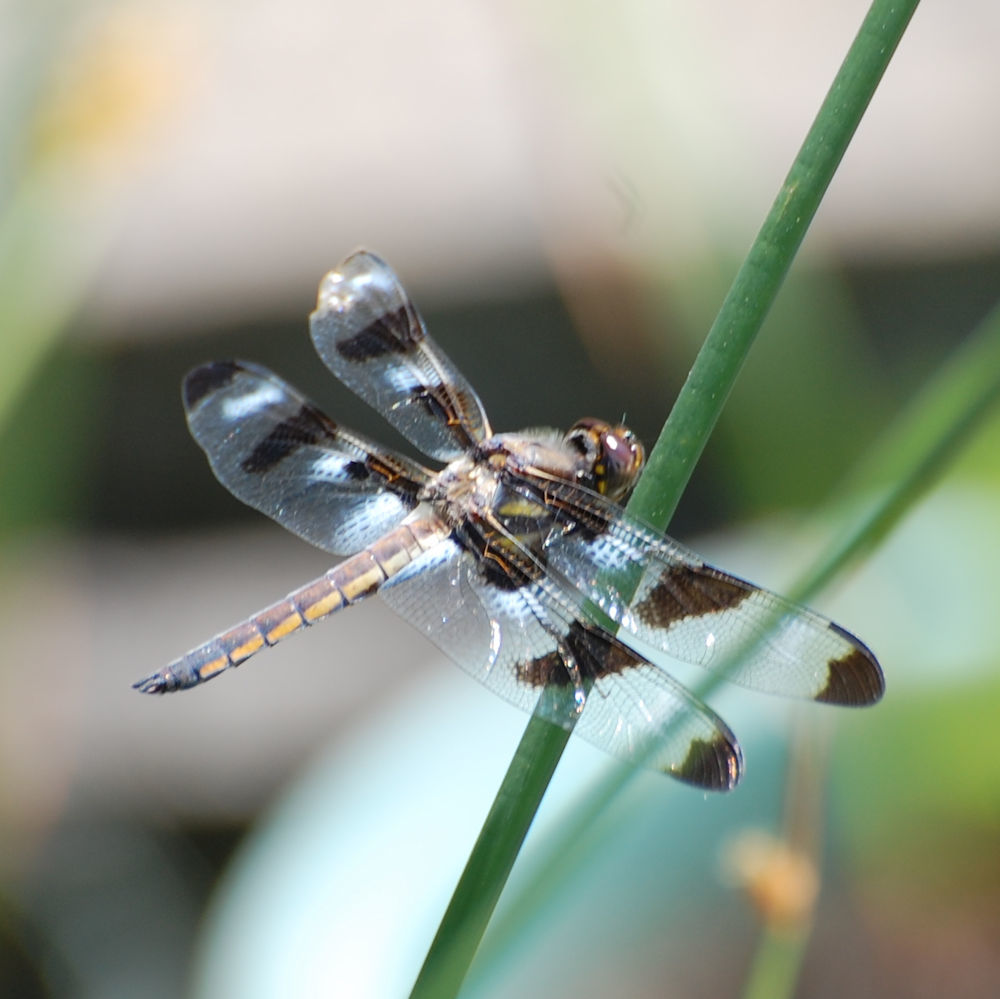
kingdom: Animalia
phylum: Arthropoda
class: Insecta
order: Odonata
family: Libellulidae
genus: Libellula
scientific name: Libellula pulchella
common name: Twelve-spotted skimmer
